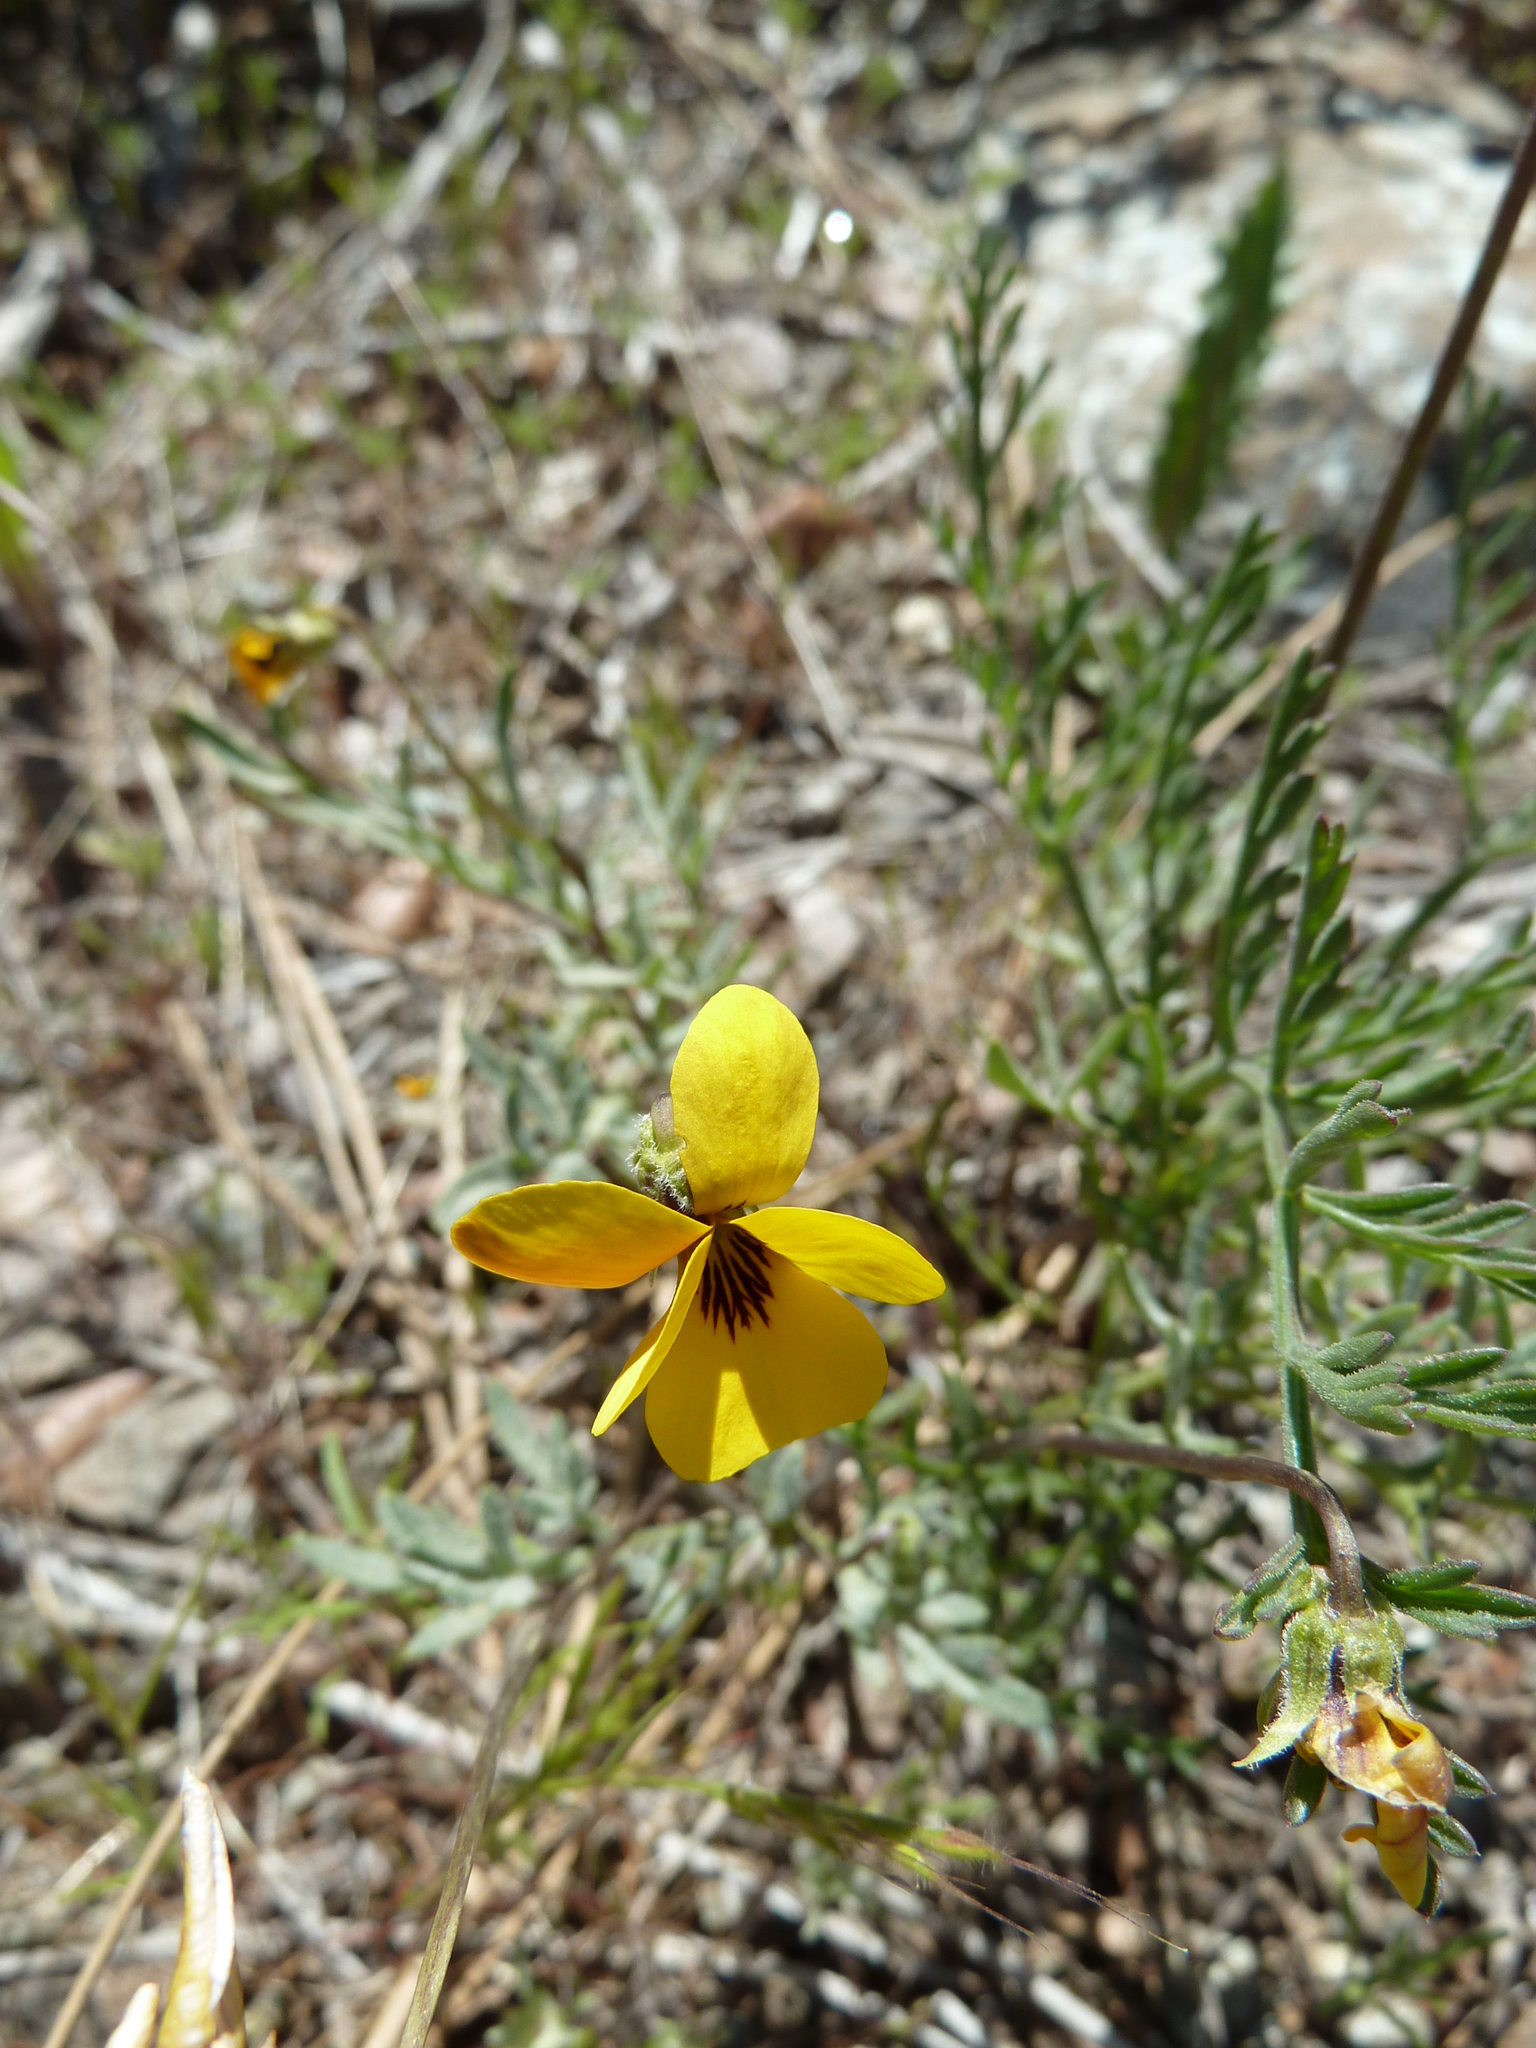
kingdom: Plantae
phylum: Tracheophyta
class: Magnoliopsida
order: Malpighiales
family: Violaceae
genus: Viola
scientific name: Viola douglasii
